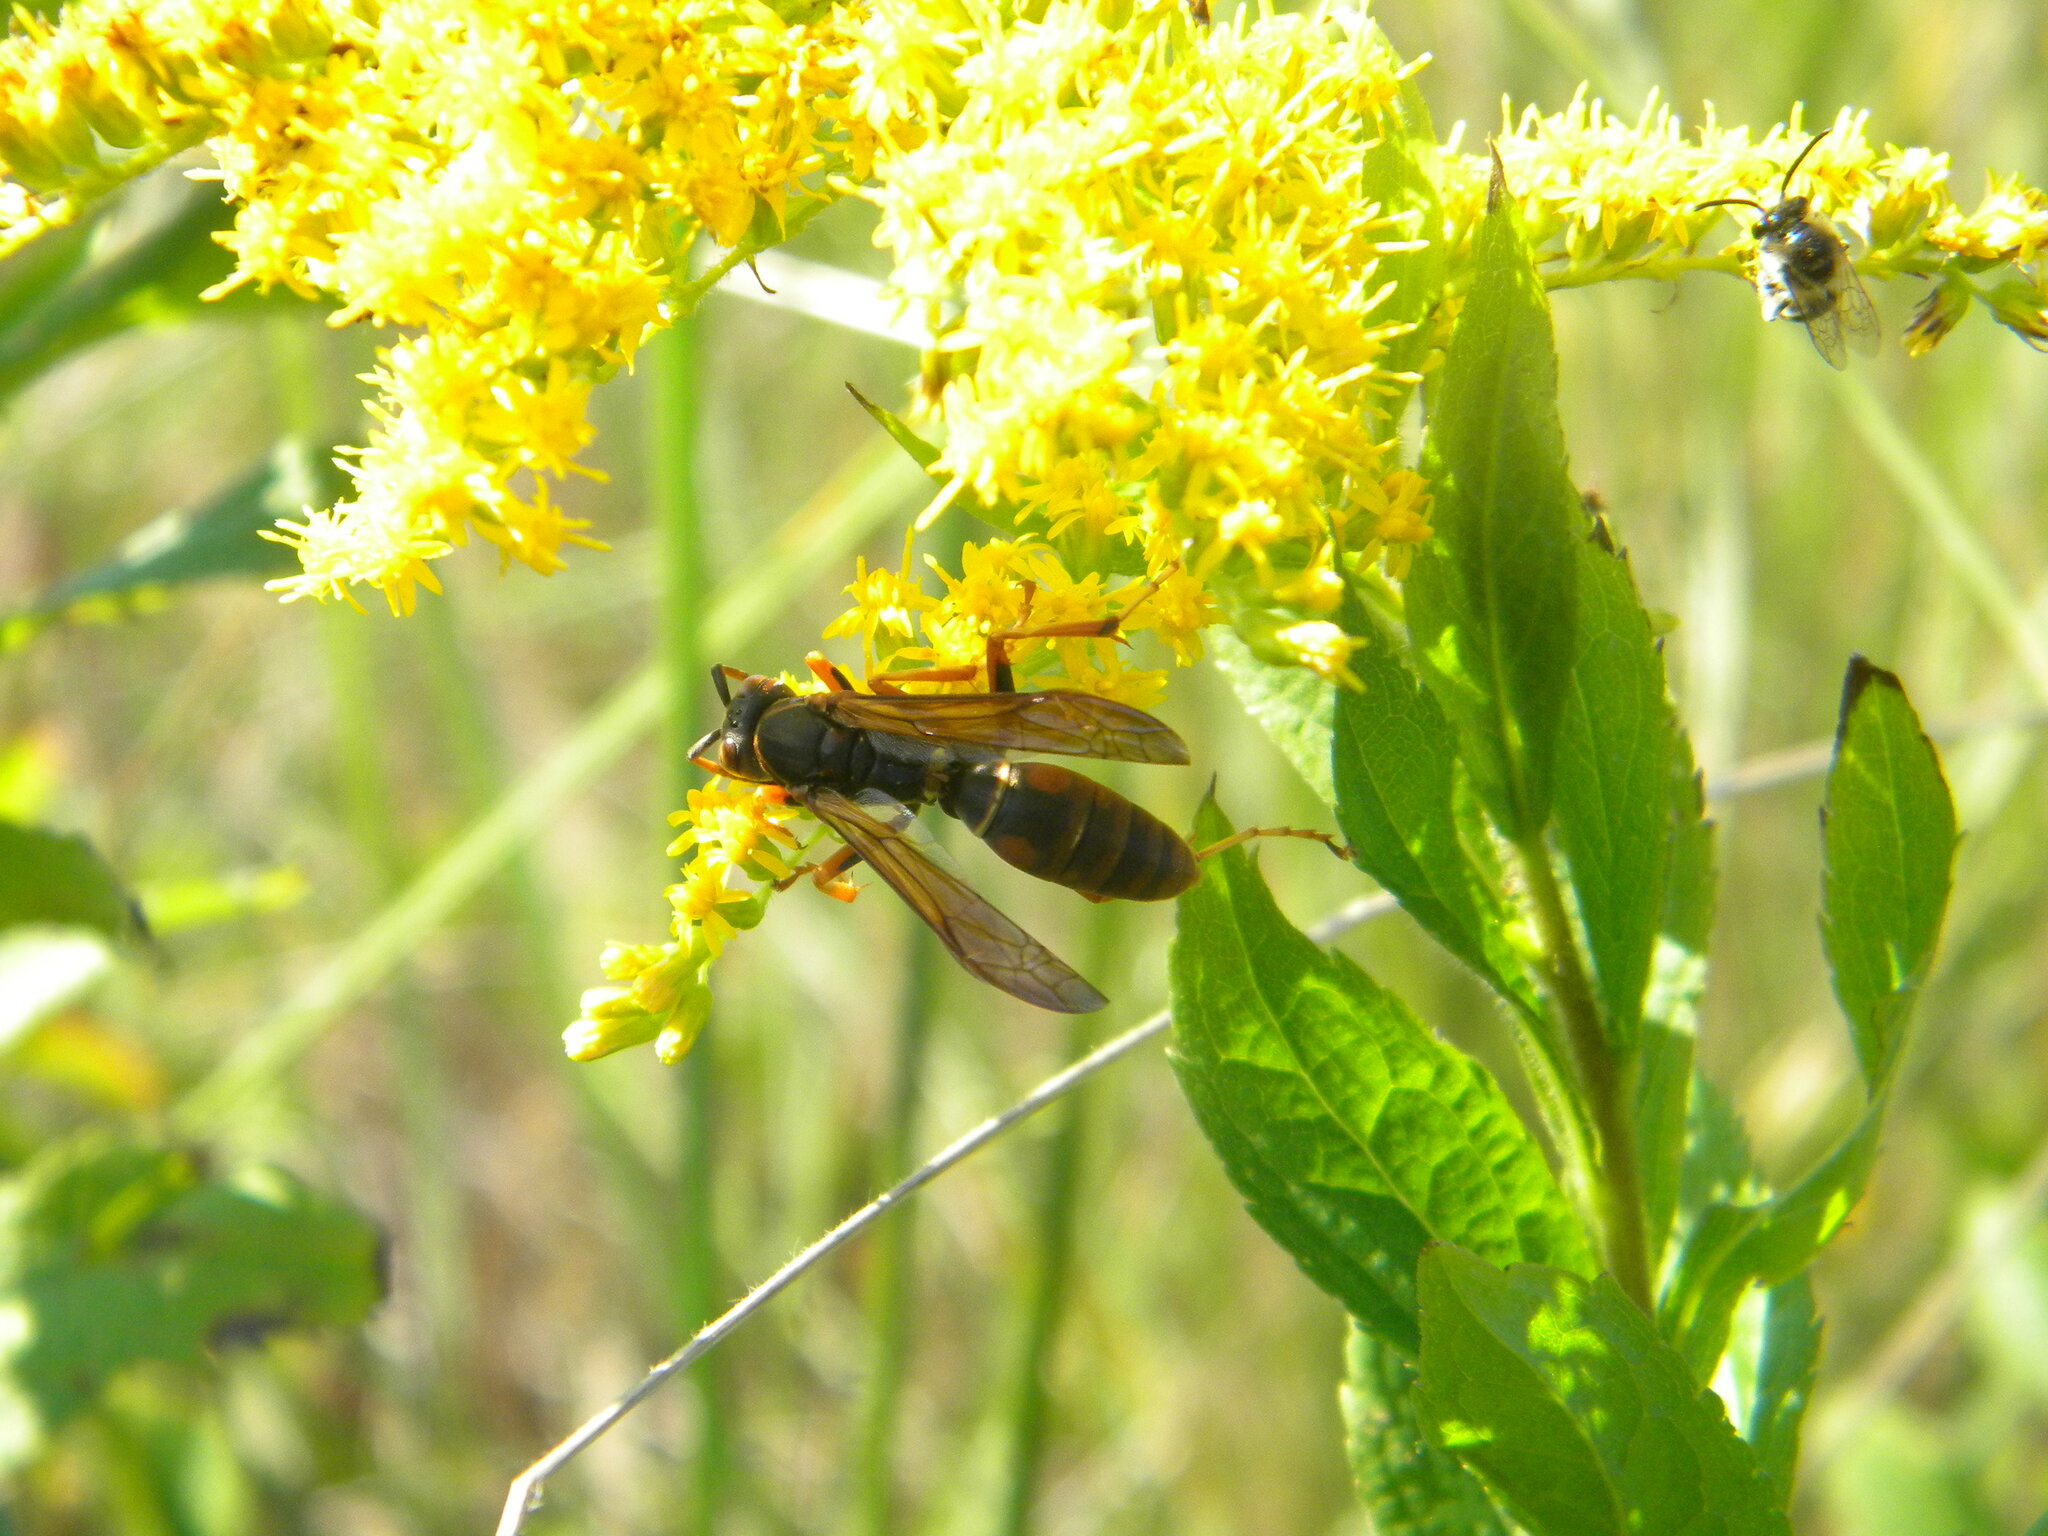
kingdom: Animalia
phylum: Arthropoda
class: Insecta
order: Hymenoptera
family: Eumenidae
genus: Polistes
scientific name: Polistes fuscatus
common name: Dark paper wasp
